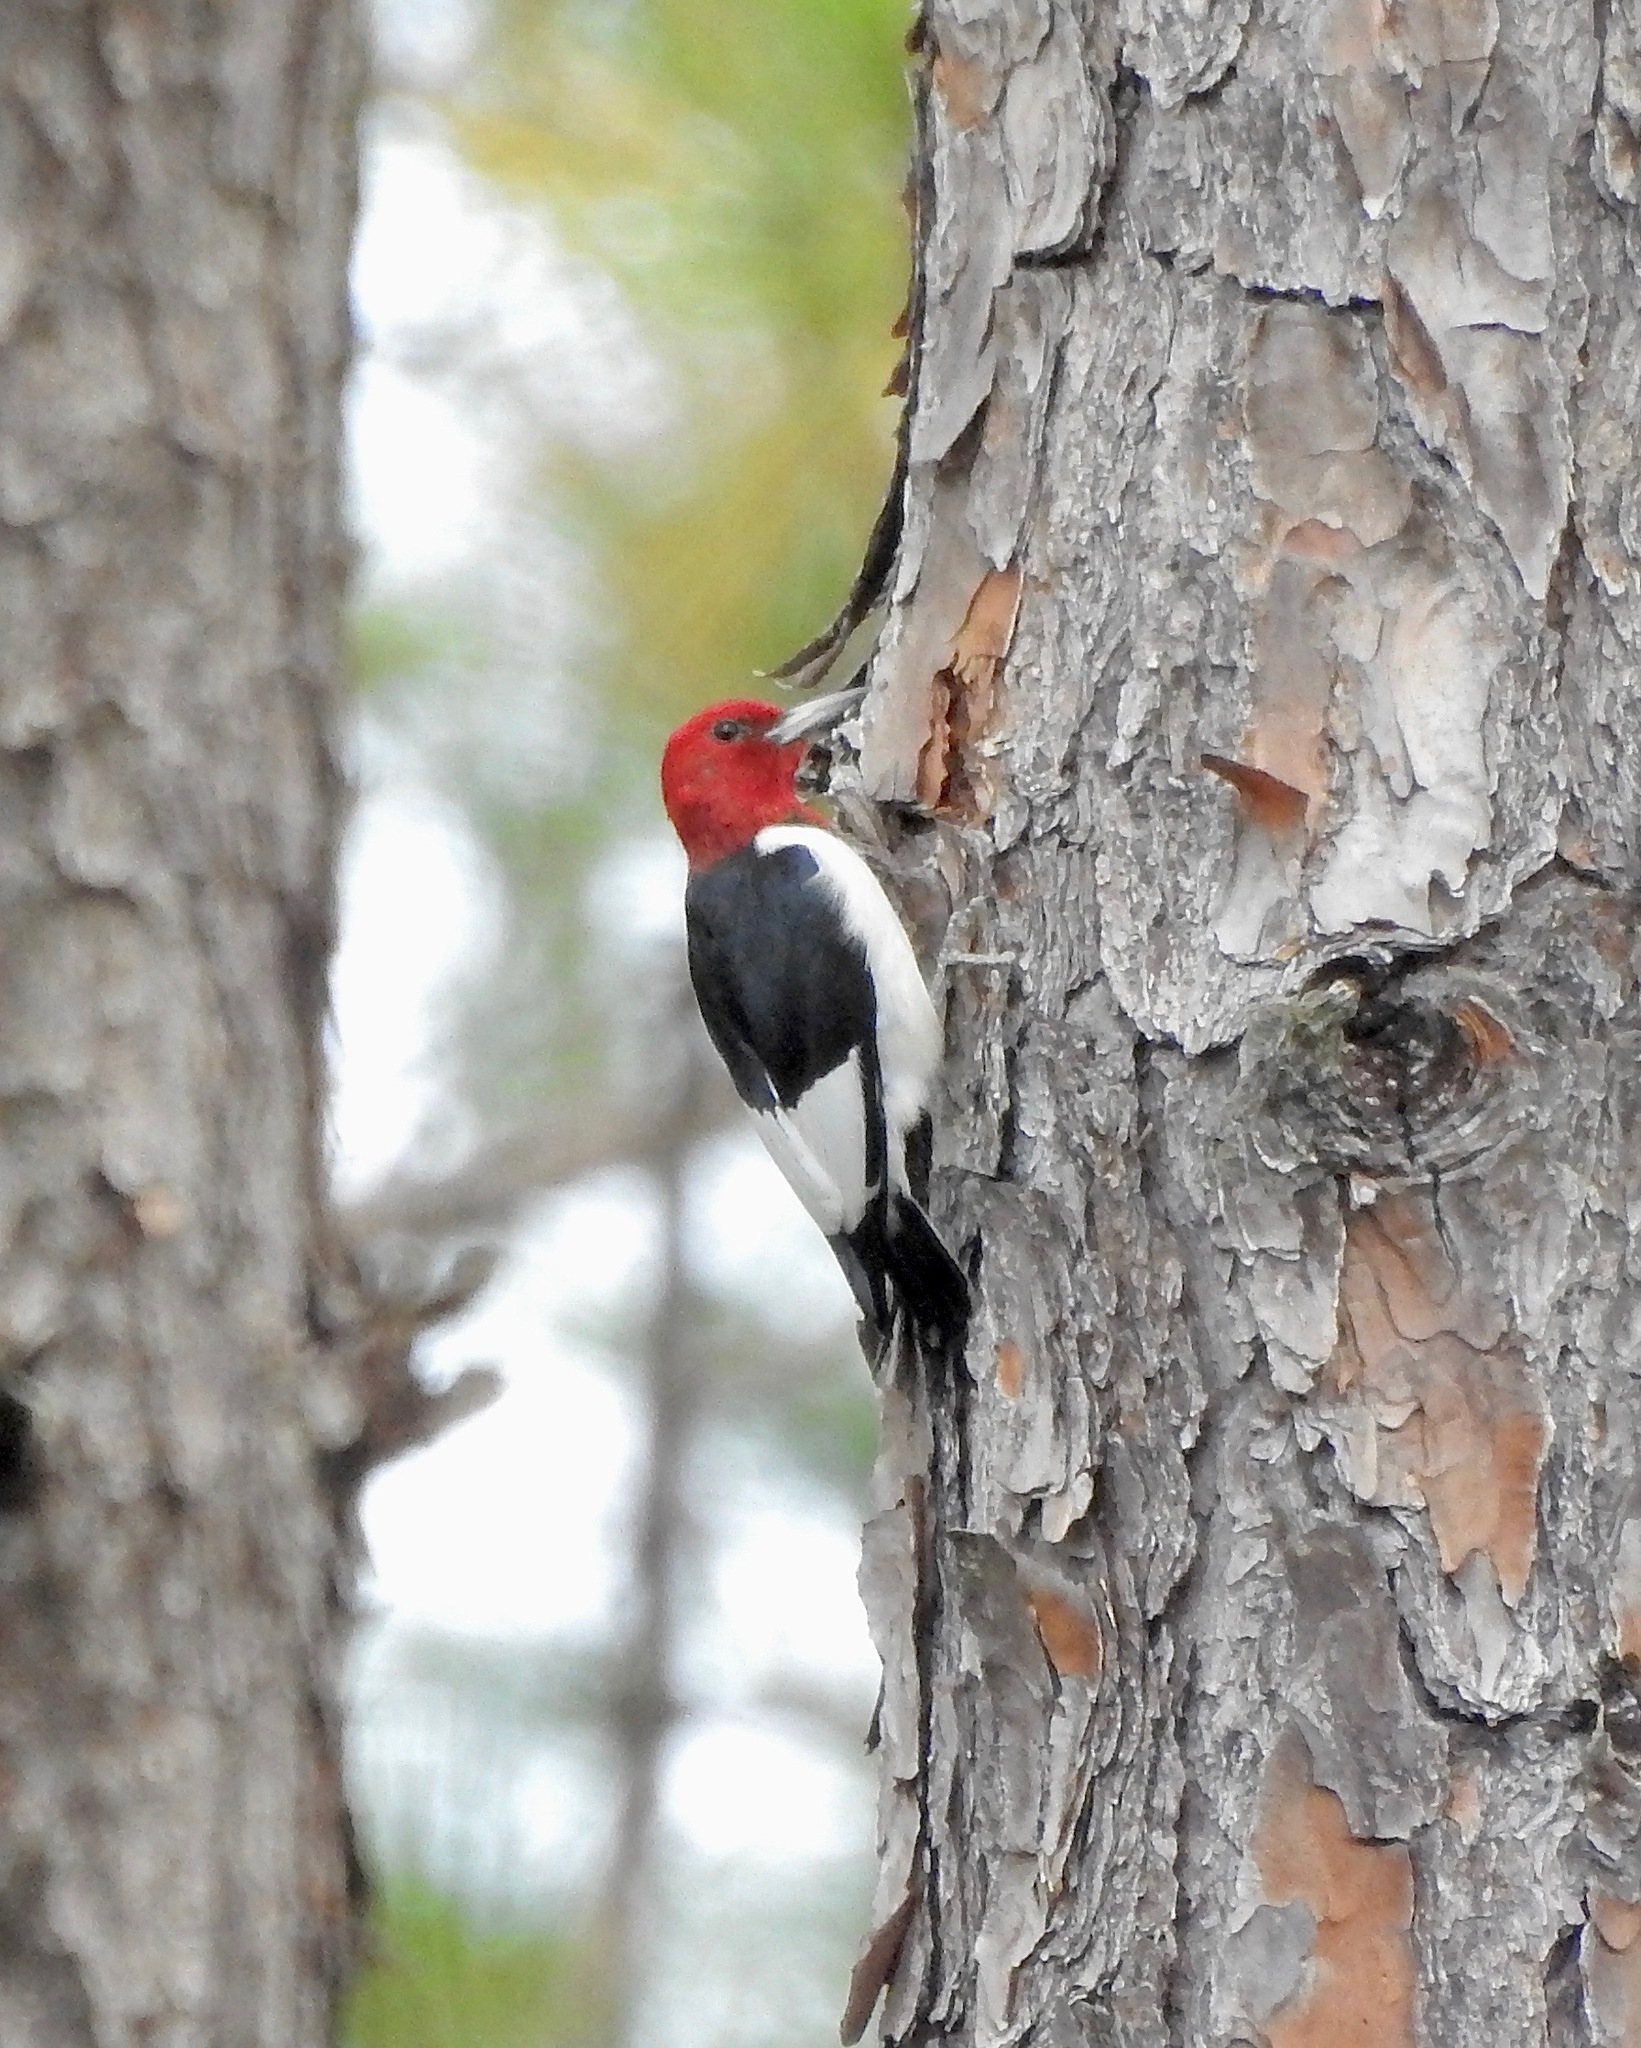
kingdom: Animalia
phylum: Chordata
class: Aves
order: Piciformes
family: Picidae
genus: Melanerpes
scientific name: Melanerpes erythrocephalus
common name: Red-headed woodpecker
